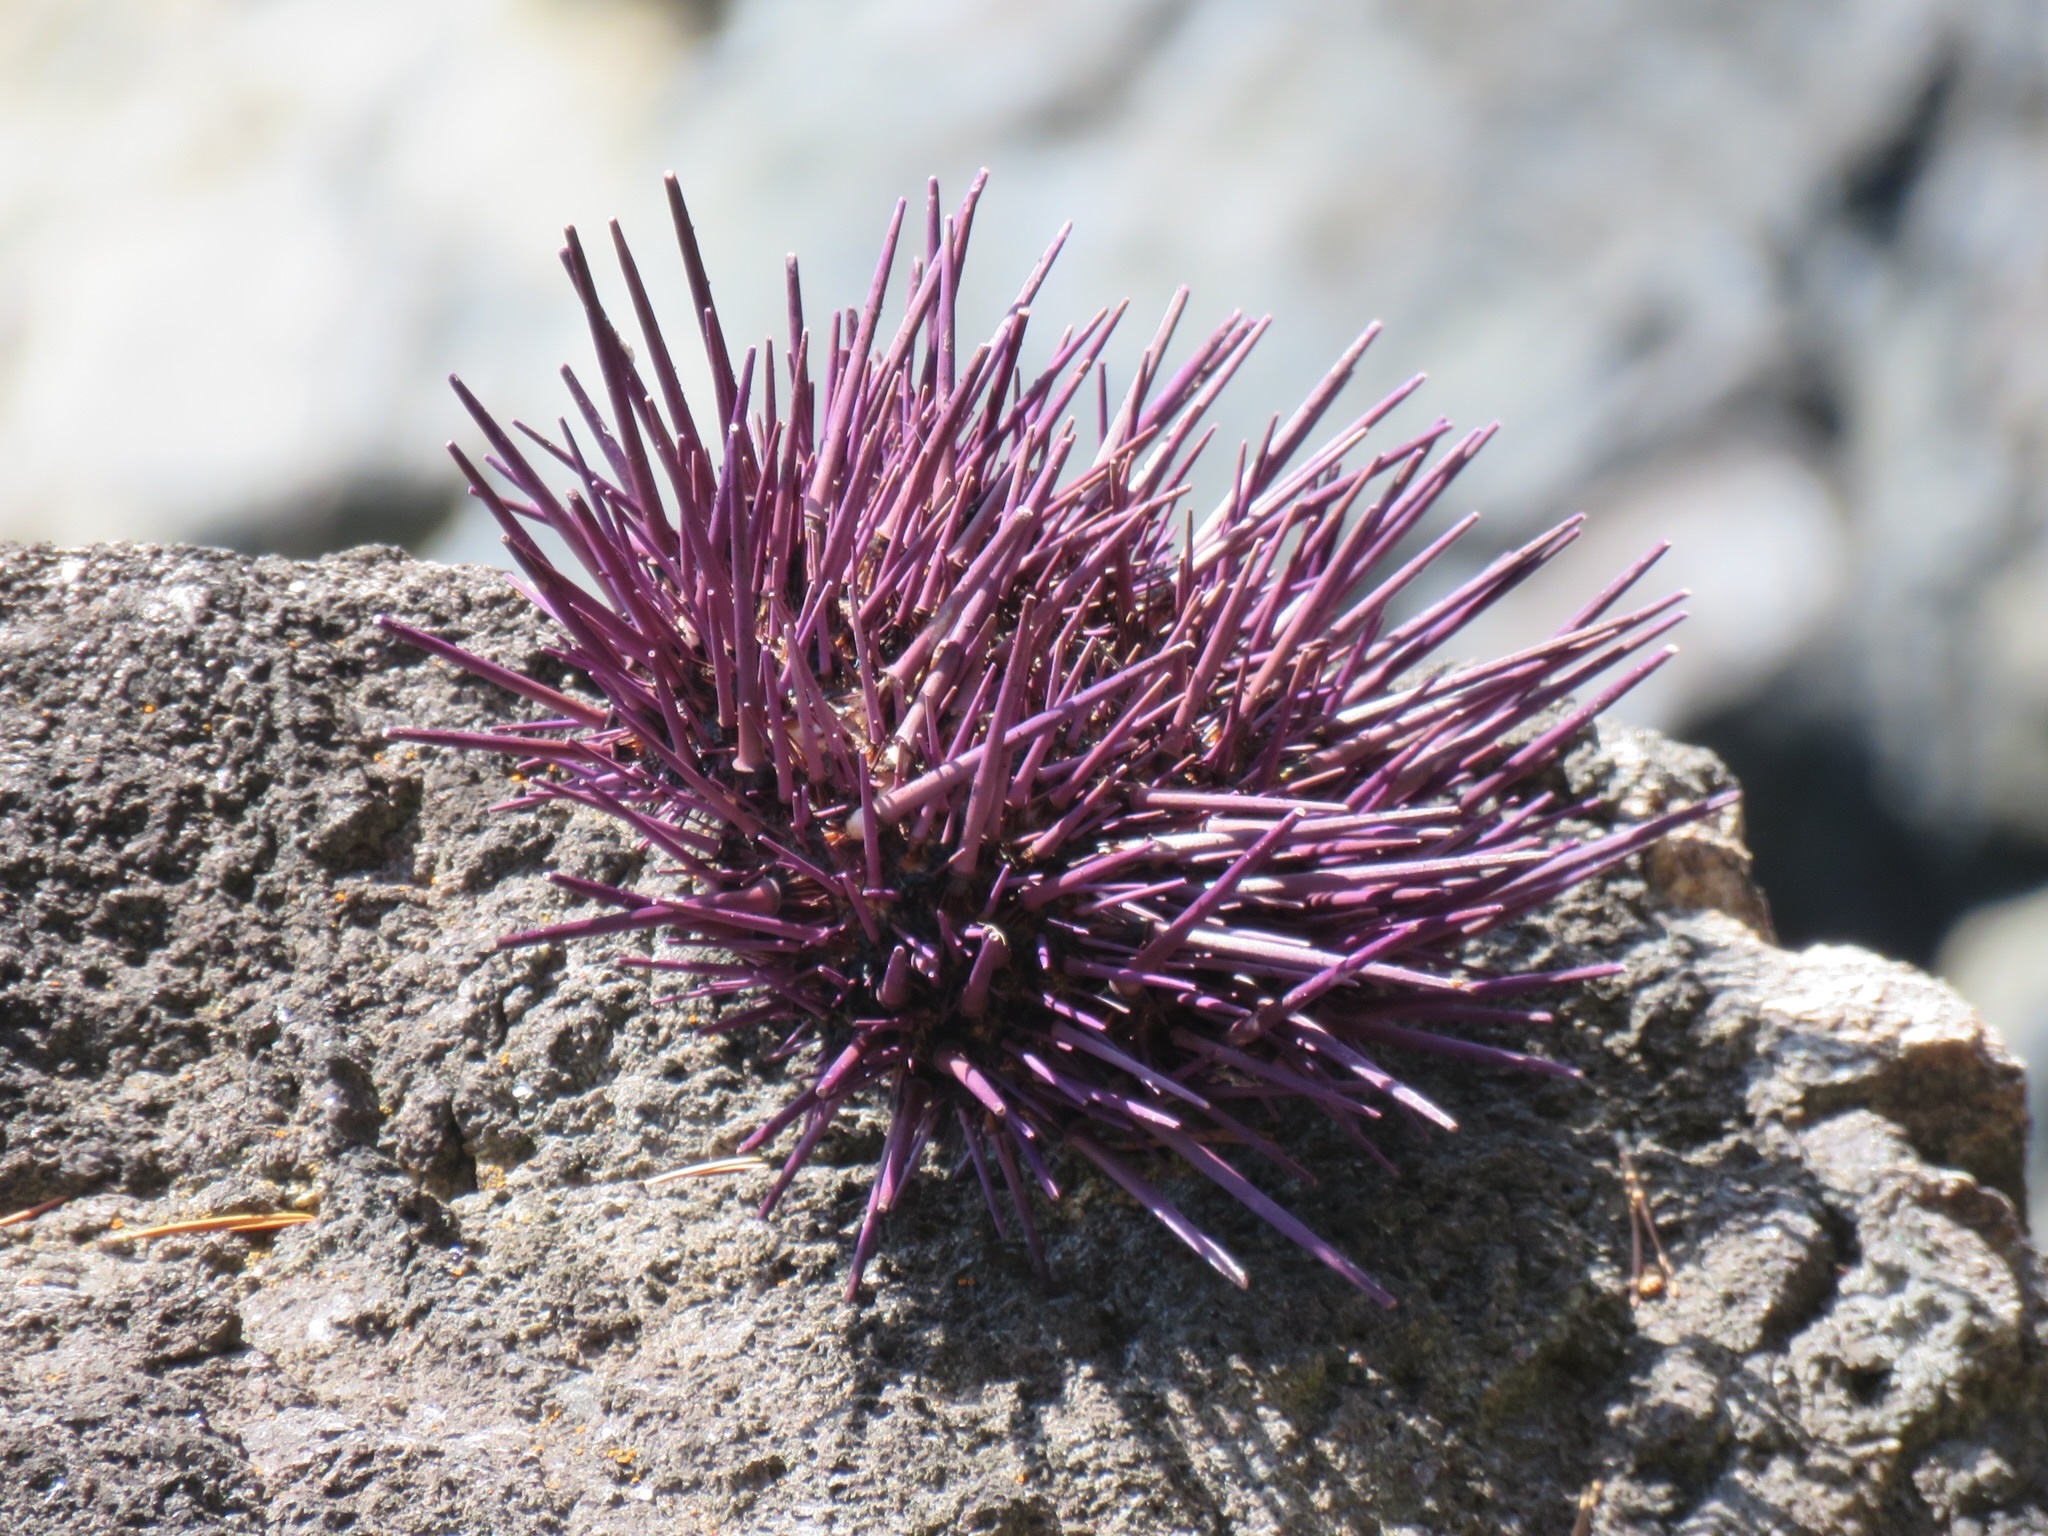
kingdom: Animalia
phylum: Echinodermata
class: Echinoidea
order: Camarodonta
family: Strongylocentrotidae
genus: Strongylocentrotus
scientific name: Strongylocentrotus purpuratus
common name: Purple sea urchin
